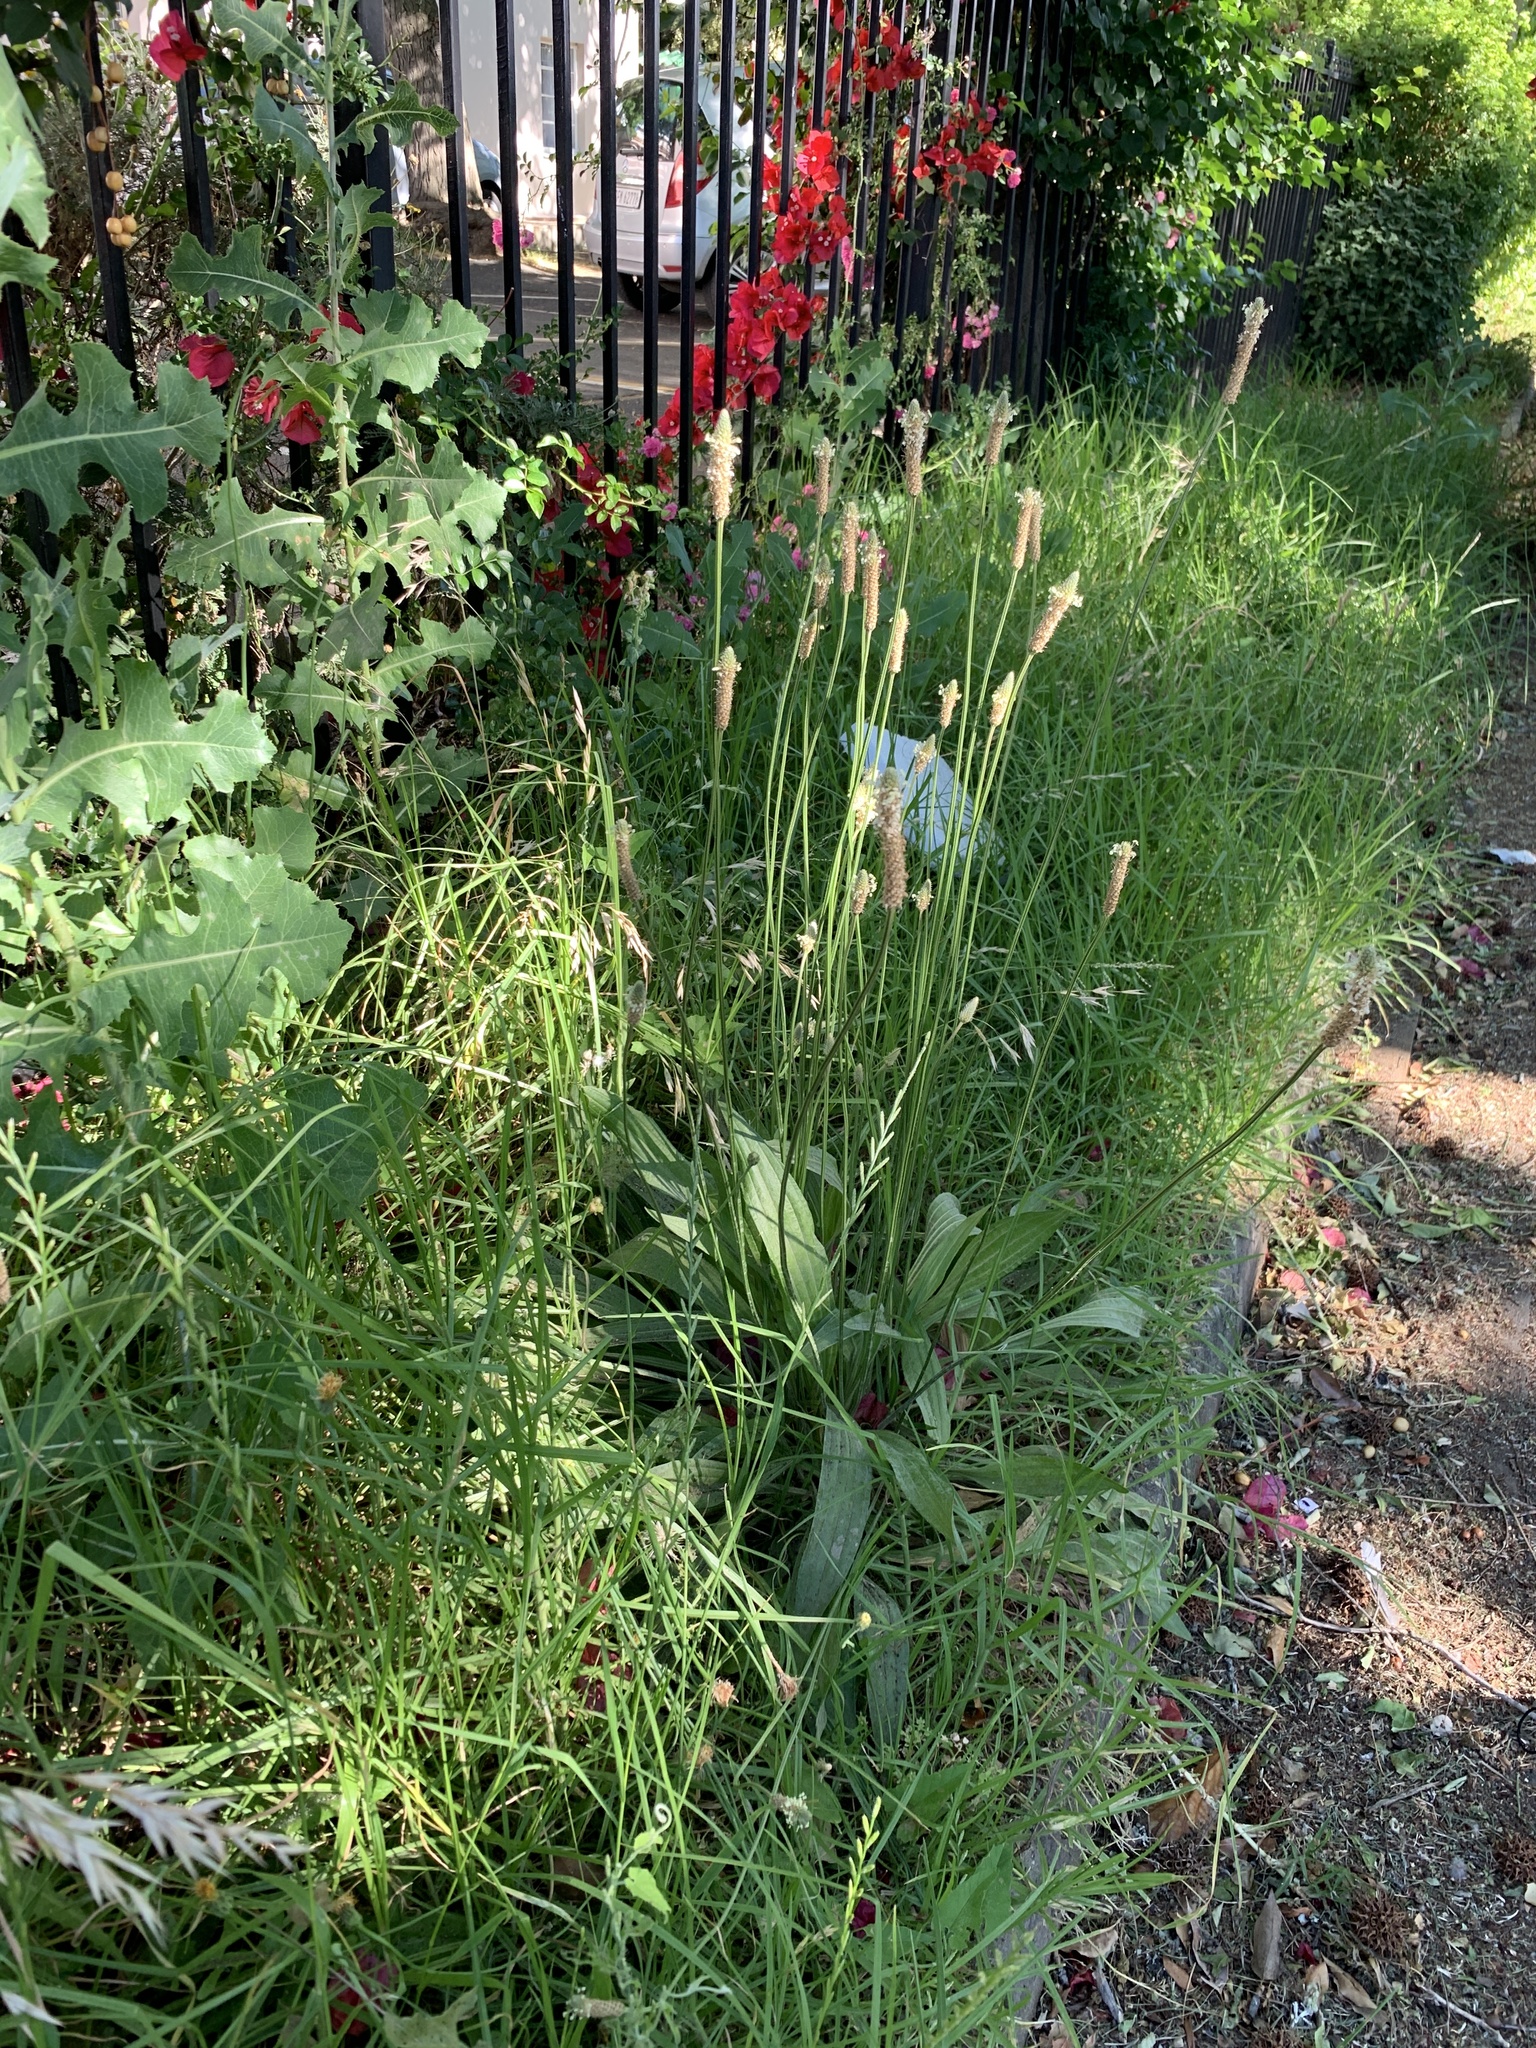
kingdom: Plantae
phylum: Tracheophyta
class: Magnoliopsida
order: Lamiales
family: Plantaginaceae
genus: Plantago
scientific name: Plantago lanceolata
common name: Ribwort plantain
